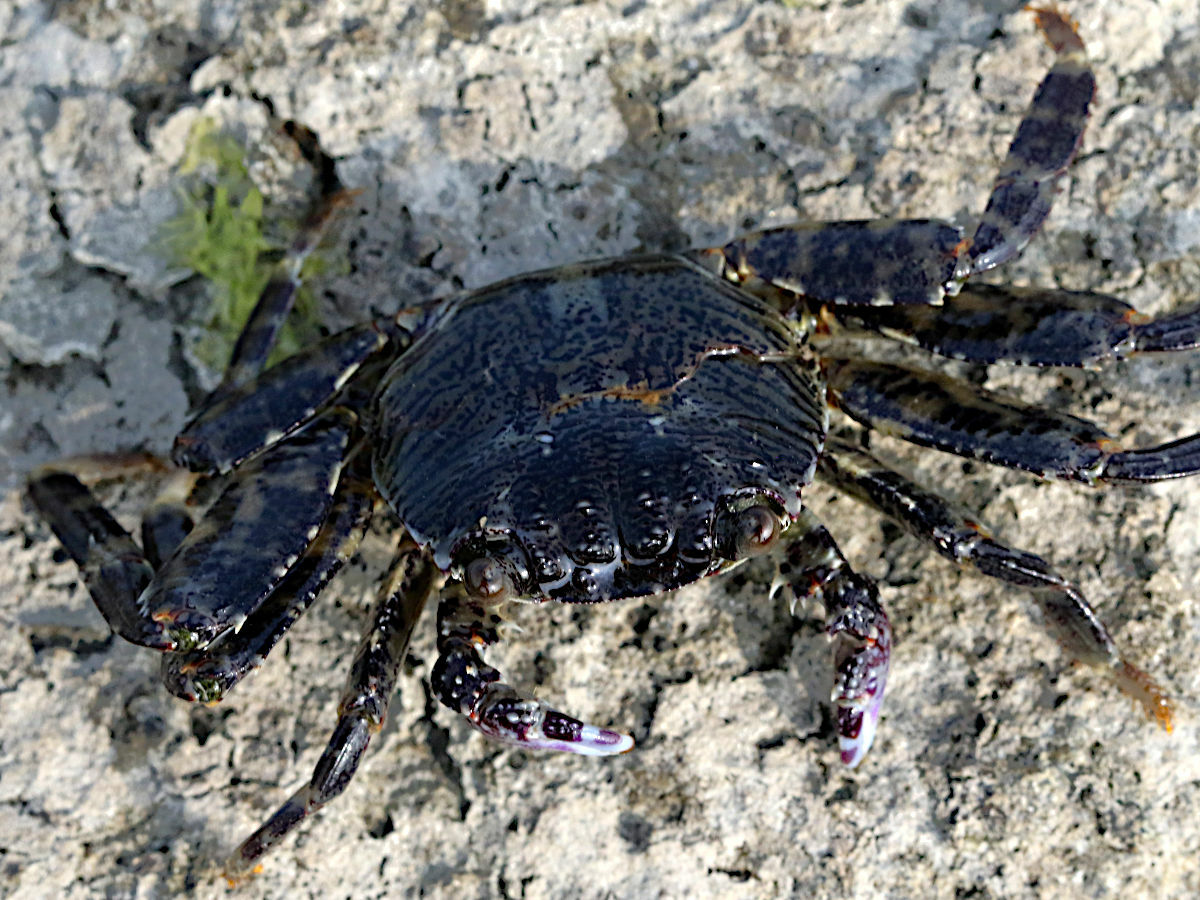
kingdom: Animalia
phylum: Arthropoda
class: Malacostraca
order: Decapoda
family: Grapsidae
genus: Grapsus
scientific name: Grapsus albolineatus
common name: Mottled lightfoot crab
